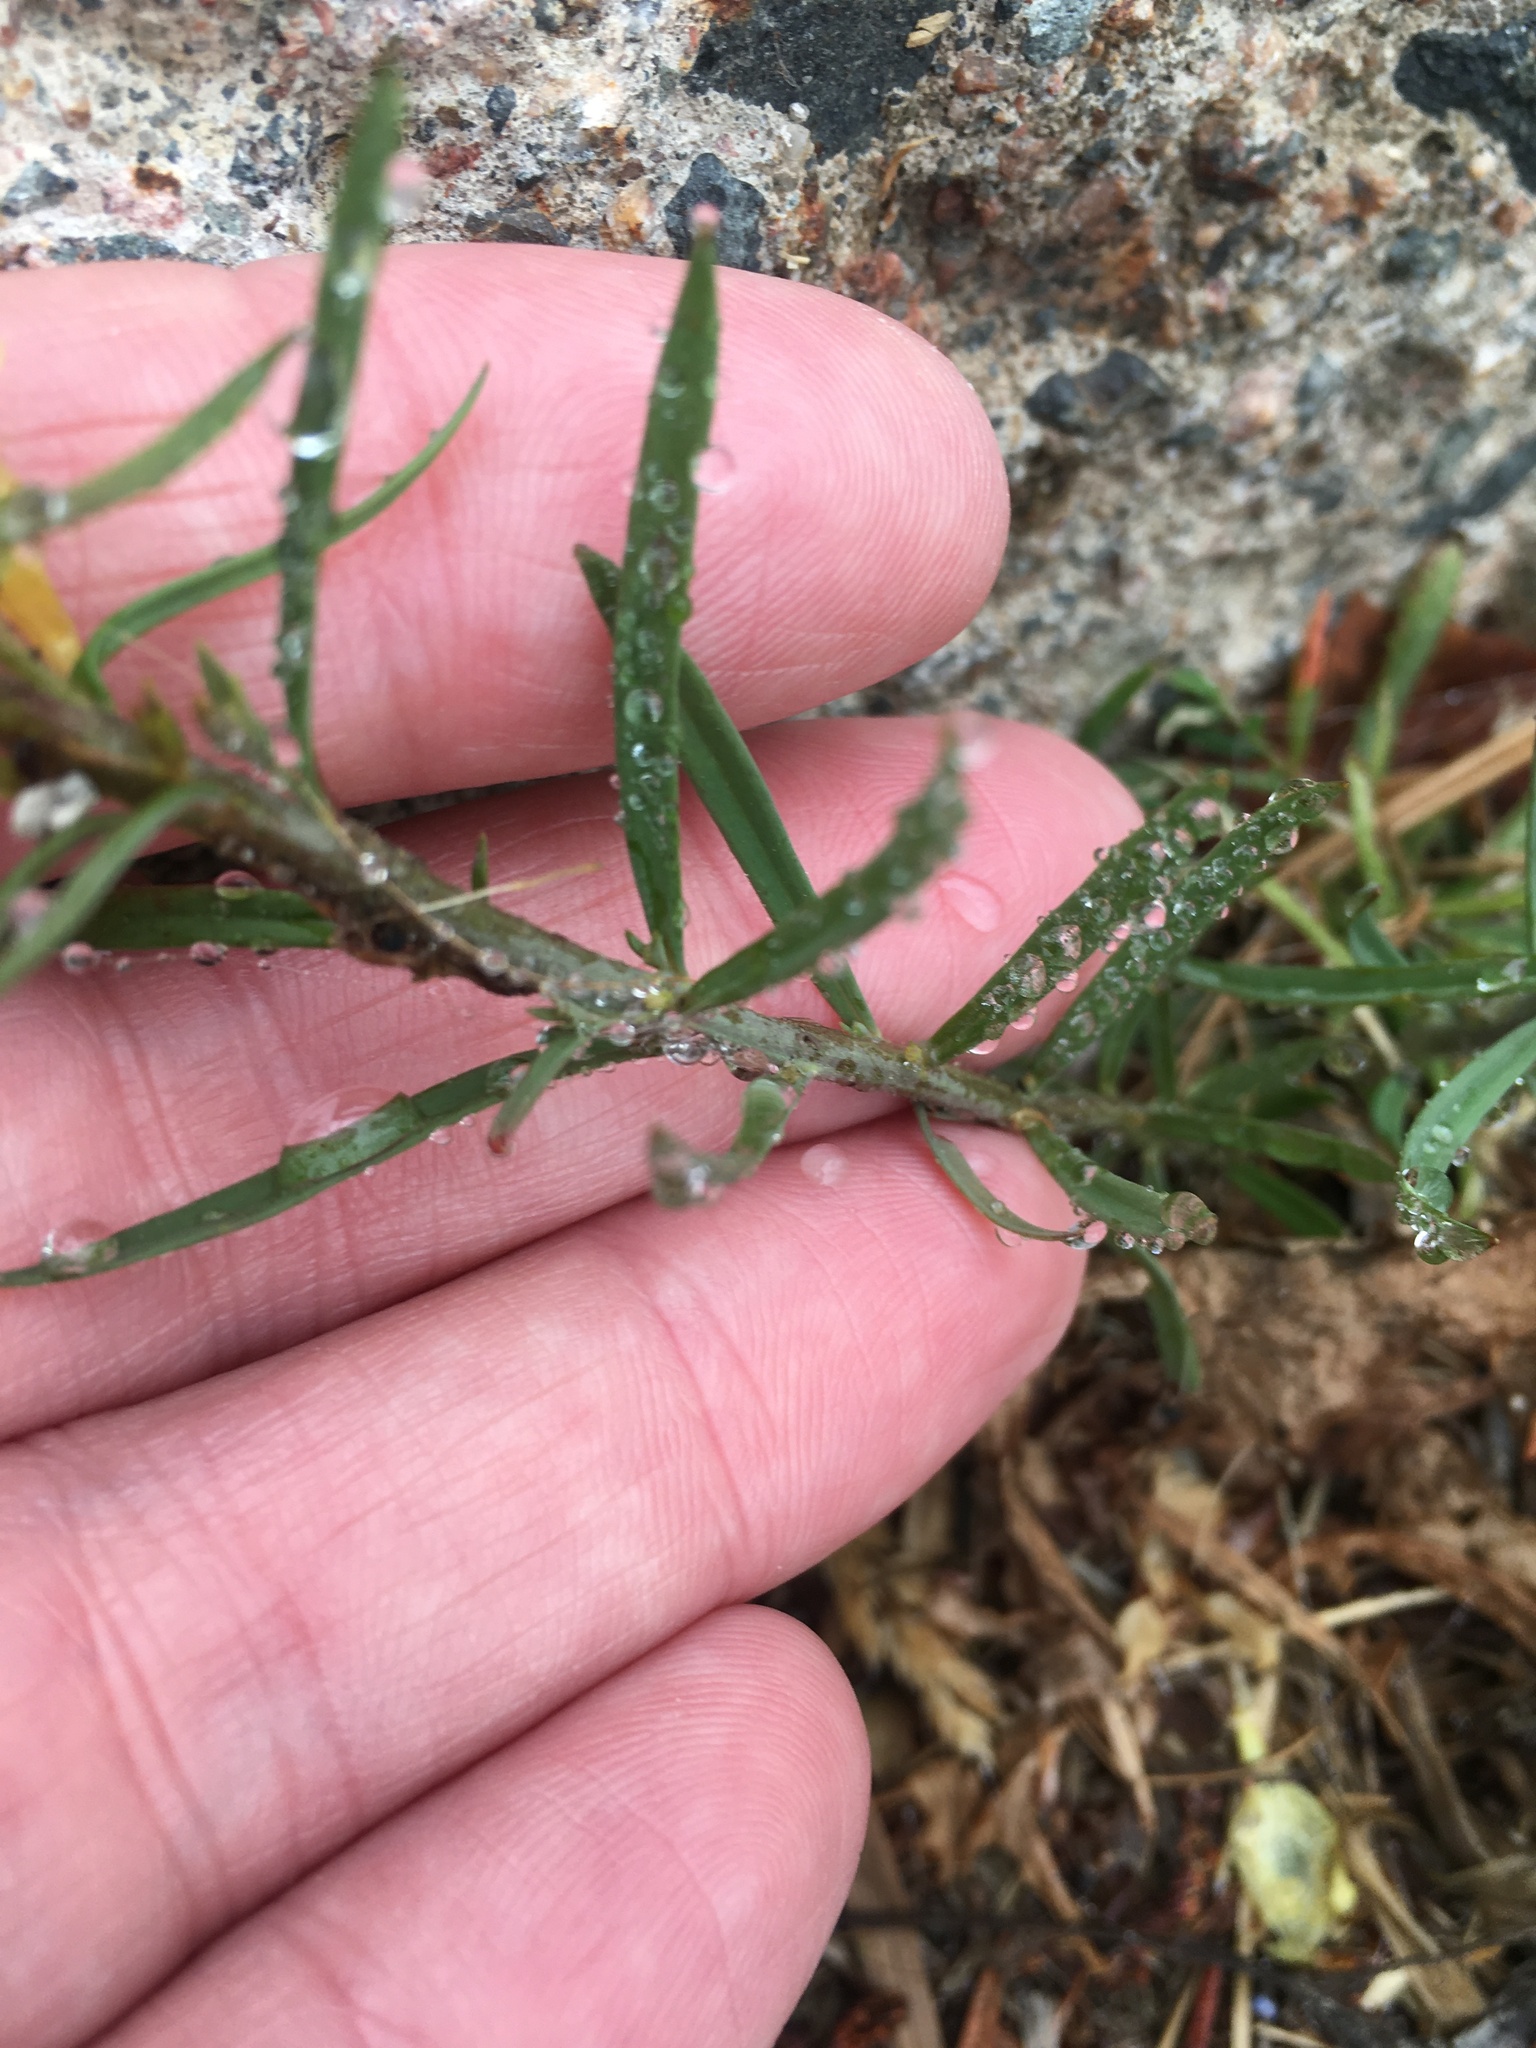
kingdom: Plantae
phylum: Tracheophyta
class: Magnoliopsida
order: Lamiales
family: Plantaginaceae
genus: Linaria
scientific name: Linaria vulgaris
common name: Butter and eggs
